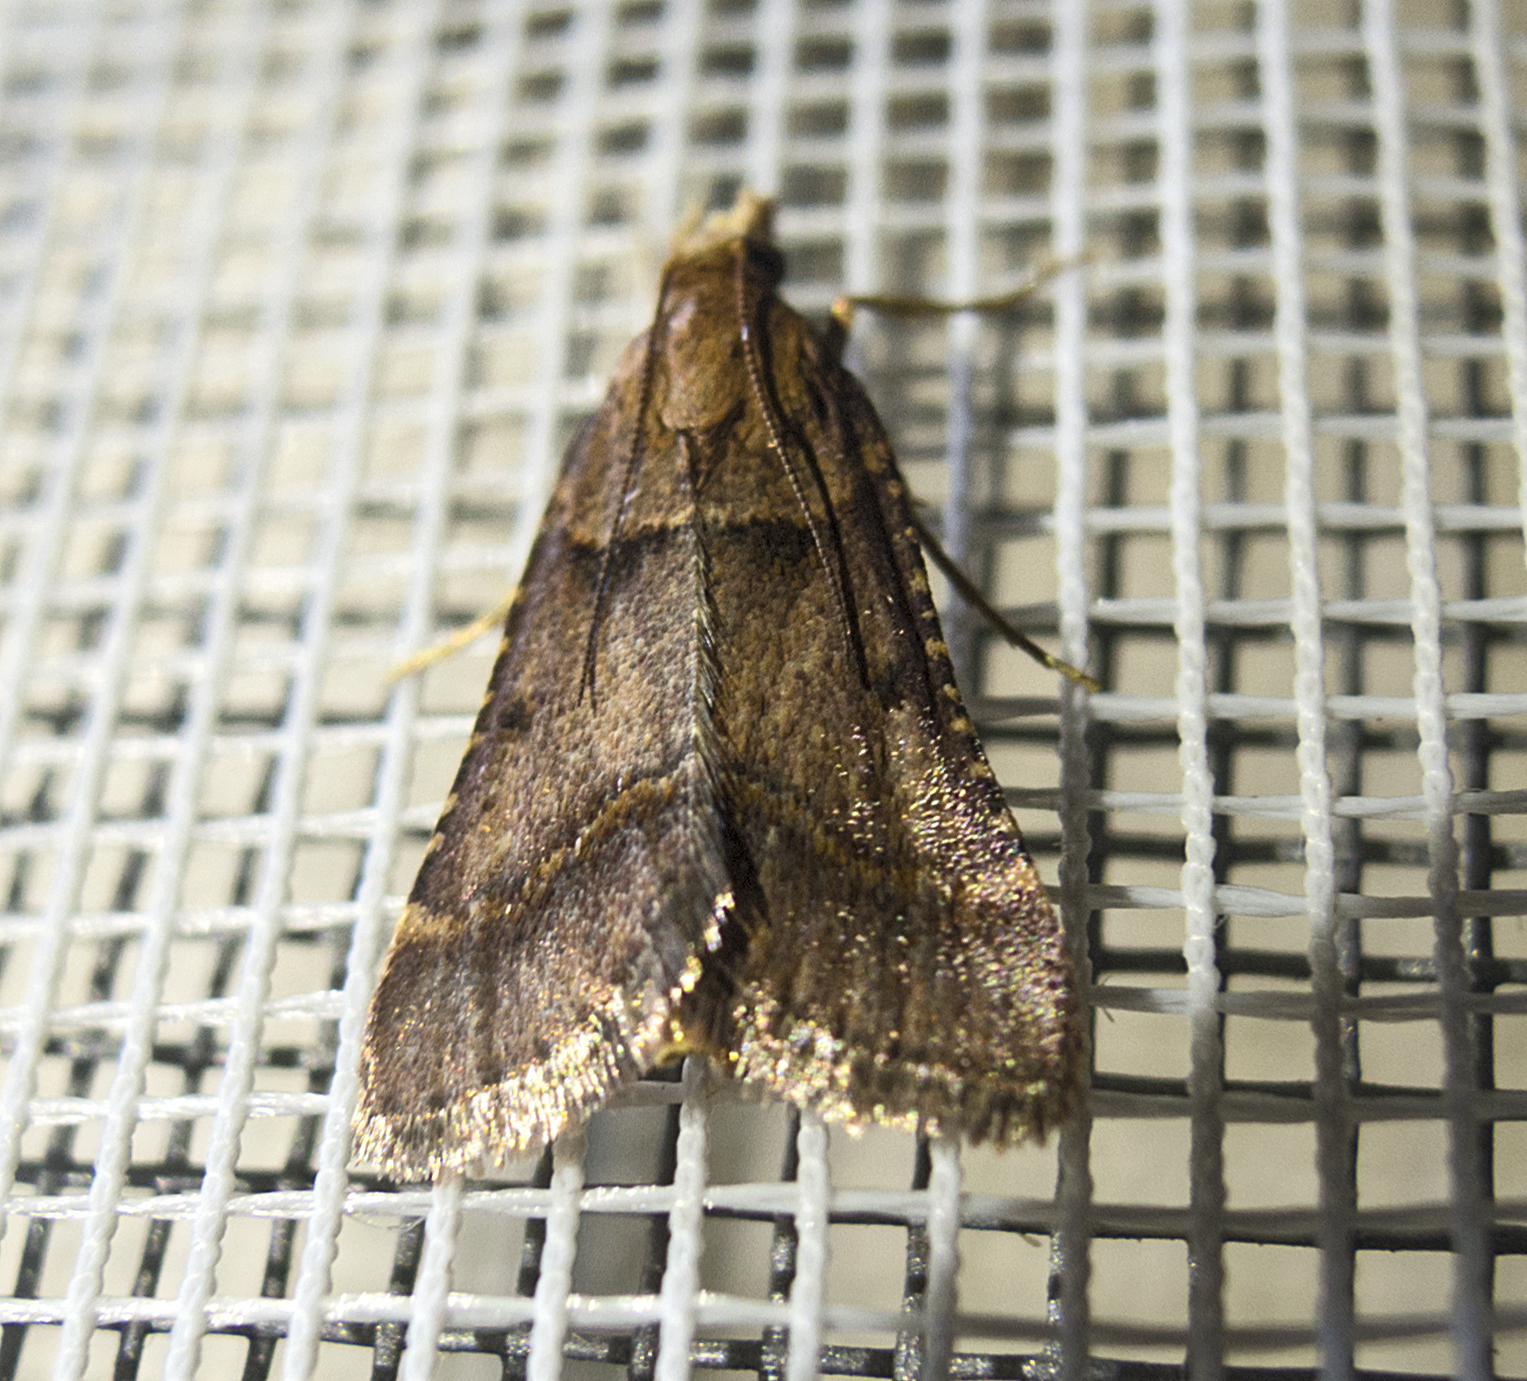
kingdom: Animalia
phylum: Arthropoda
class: Insecta
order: Lepidoptera
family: Pyralidae
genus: Stemmatophora
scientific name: Stemmatophora brunnealis
